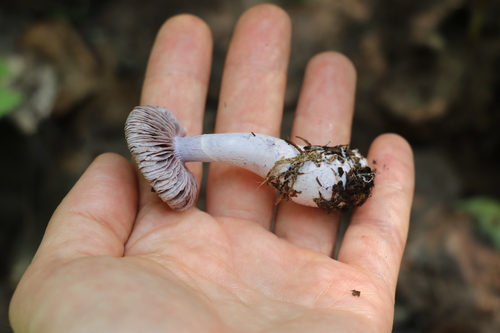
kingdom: Fungi
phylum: Basidiomycota
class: Agaricomycetes
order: Agaricales
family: Cortinariaceae
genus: Cortinarius
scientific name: Cortinarius alboviolaceus
